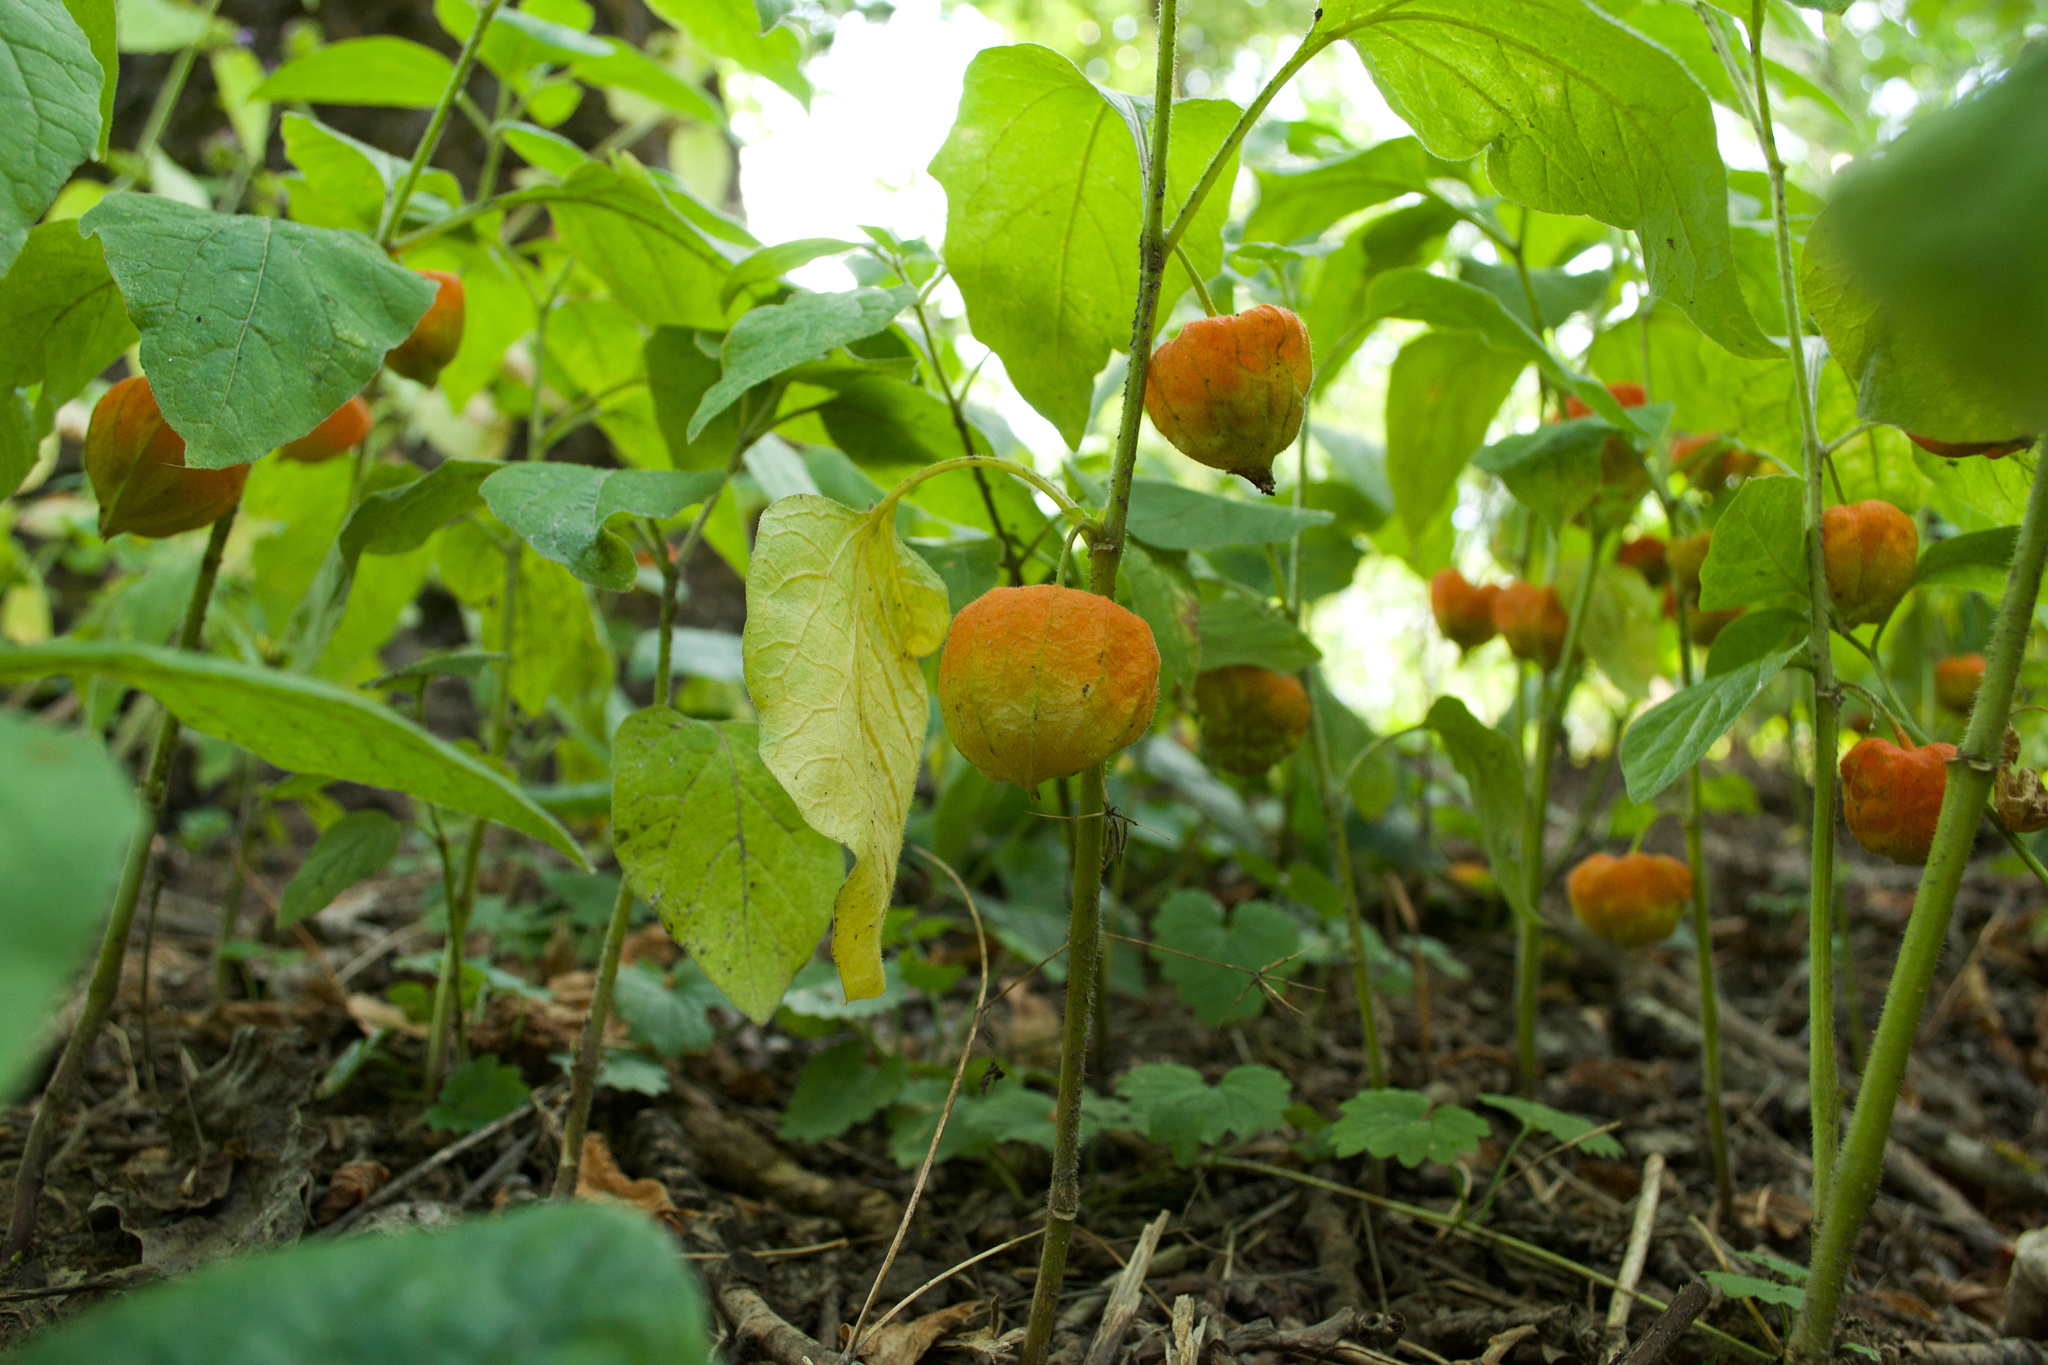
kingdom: Plantae
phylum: Tracheophyta
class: Magnoliopsida
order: Solanales
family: Solanaceae
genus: Alkekengi
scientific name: Alkekengi officinarum
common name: Japanese-lantern
